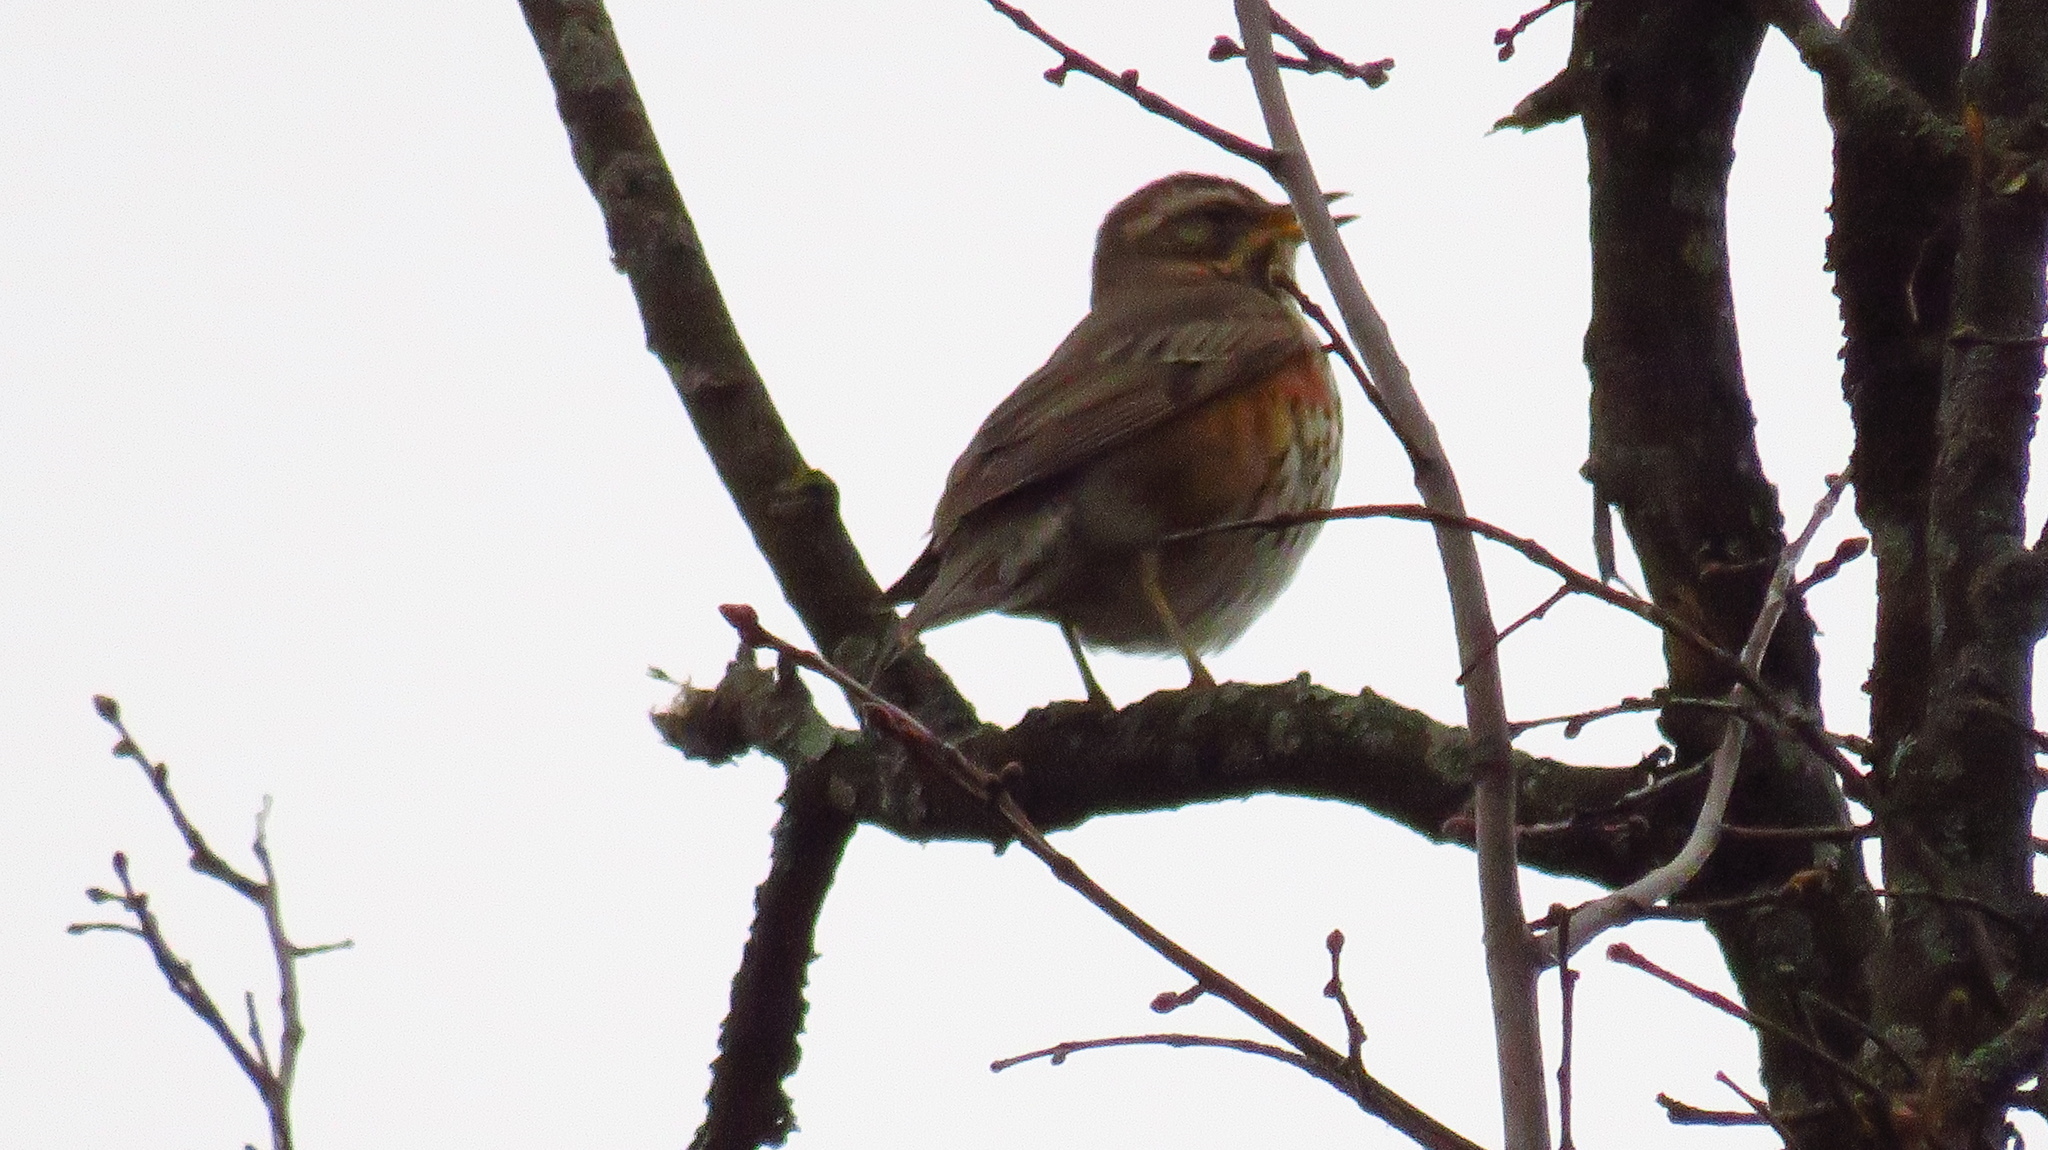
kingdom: Animalia
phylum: Chordata
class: Aves
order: Passeriformes
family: Turdidae
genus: Turdus
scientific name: Turdus iliacus
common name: Redwing
